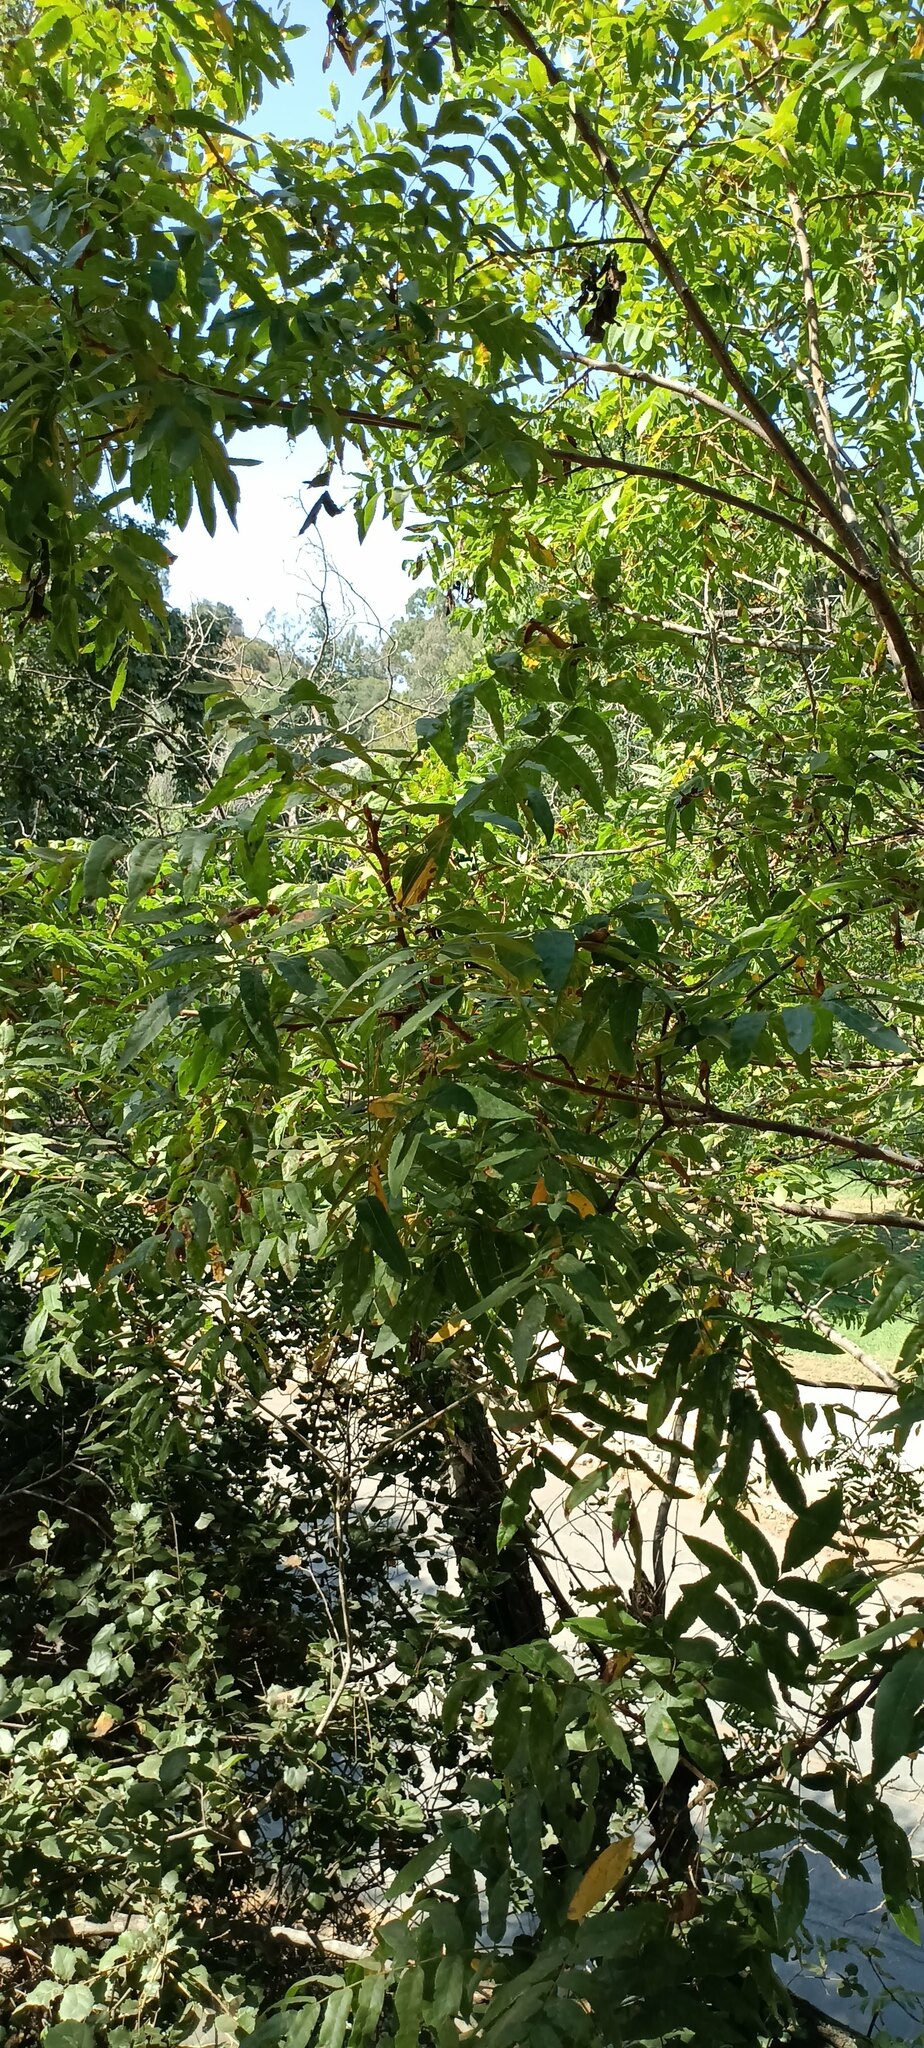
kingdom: Plantae
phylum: Tracheophyta
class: Magnoliopsida
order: Fagales
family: Juglandaceae
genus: Juglans
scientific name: Juglans californica
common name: Southern california black walnut
